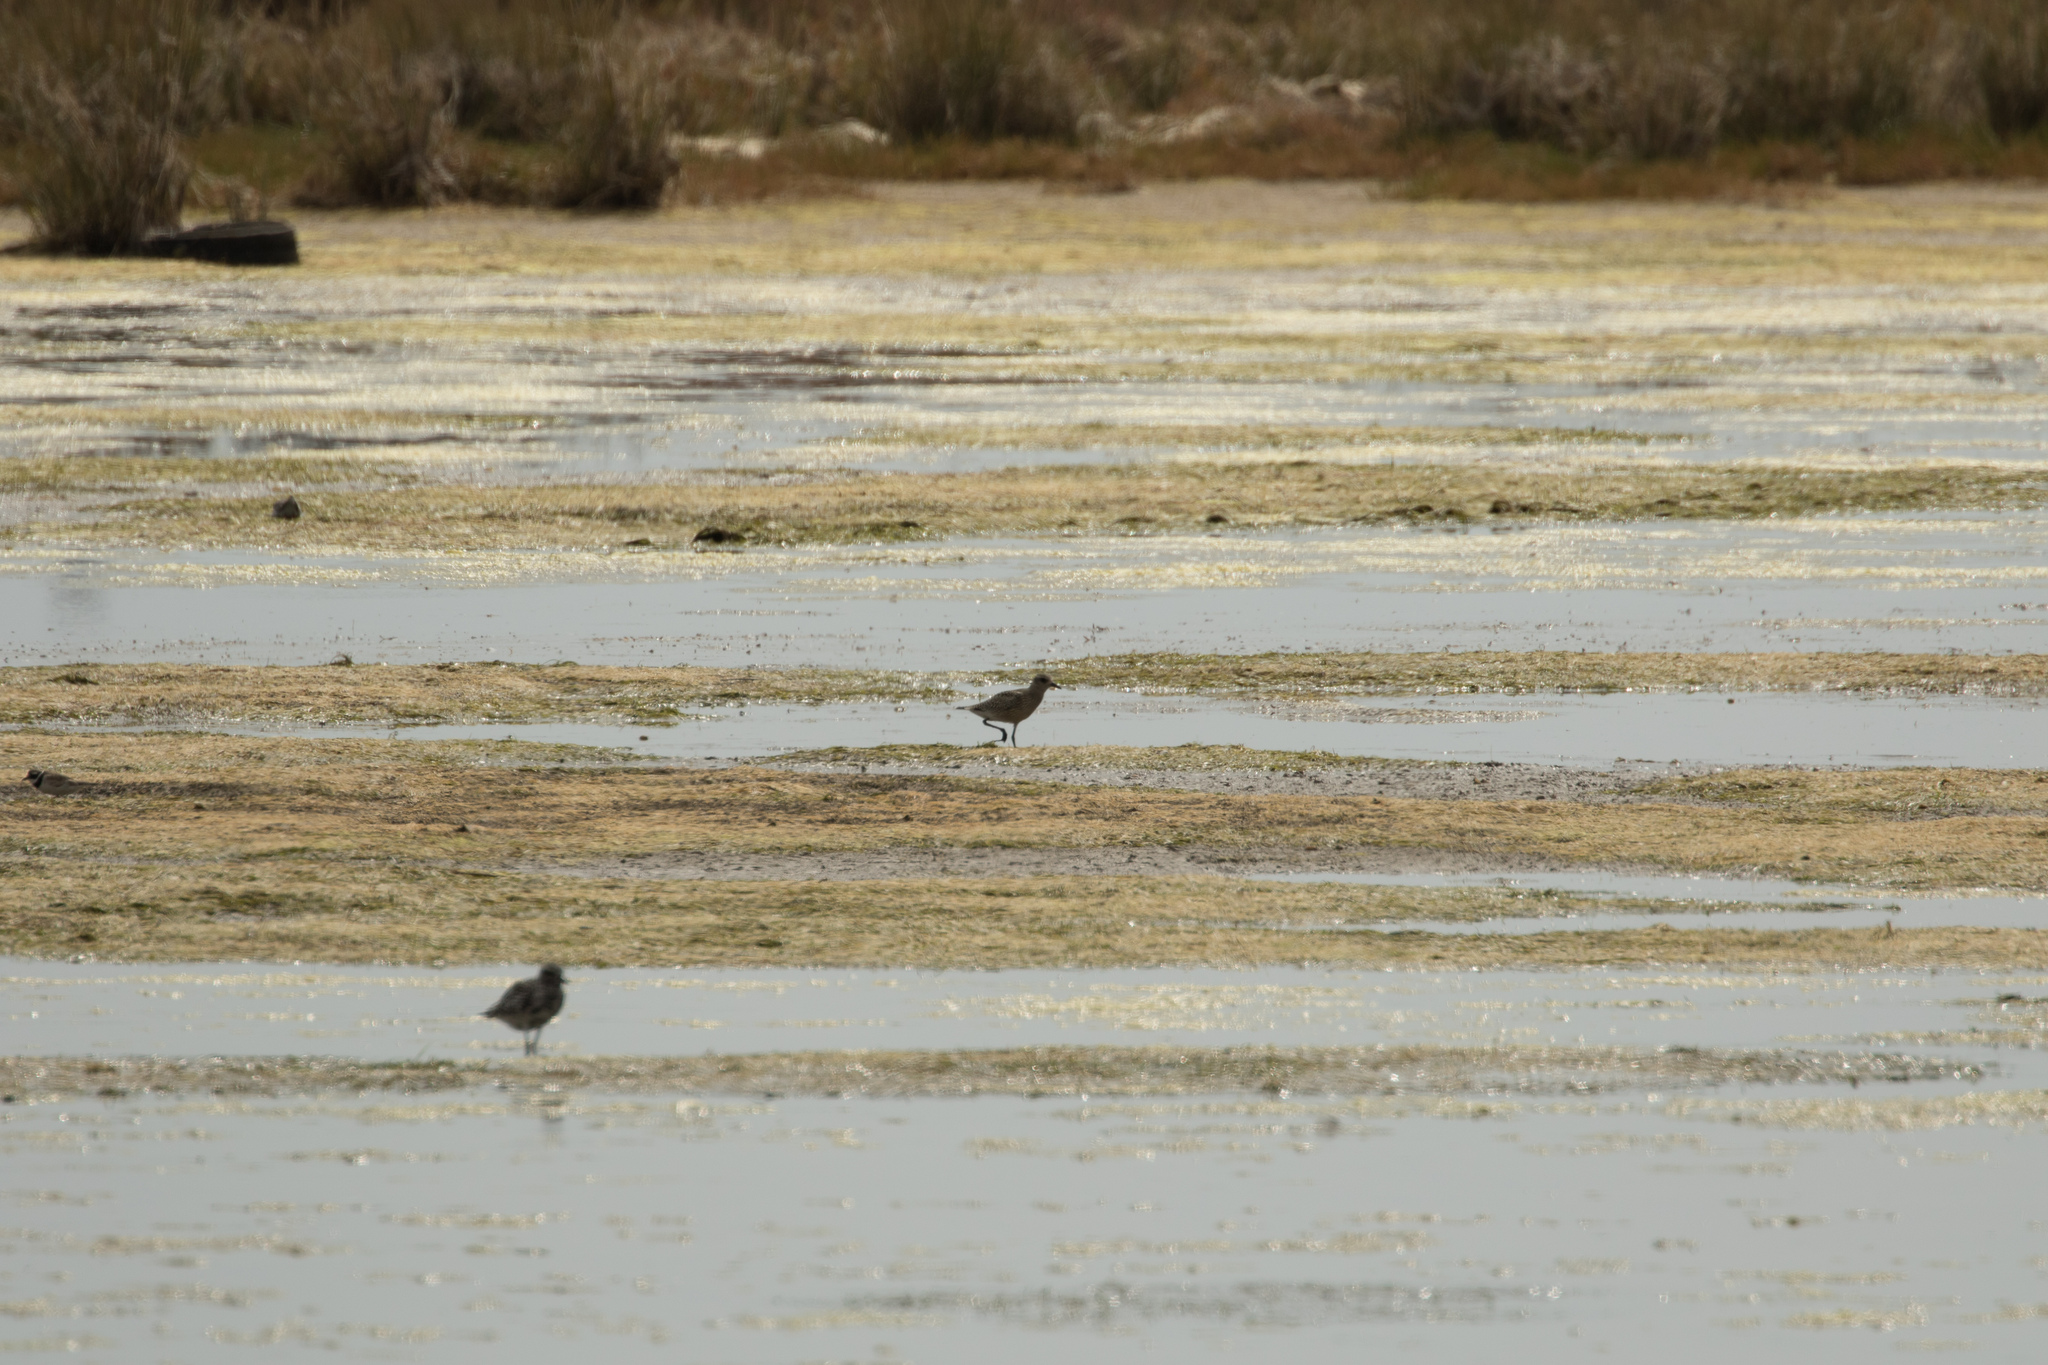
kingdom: Animalia
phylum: Chordata
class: Aves
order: Charadriiformes
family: Charadriidae
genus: Pluvialis
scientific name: Pluvialis squatarola
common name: Grey plover
